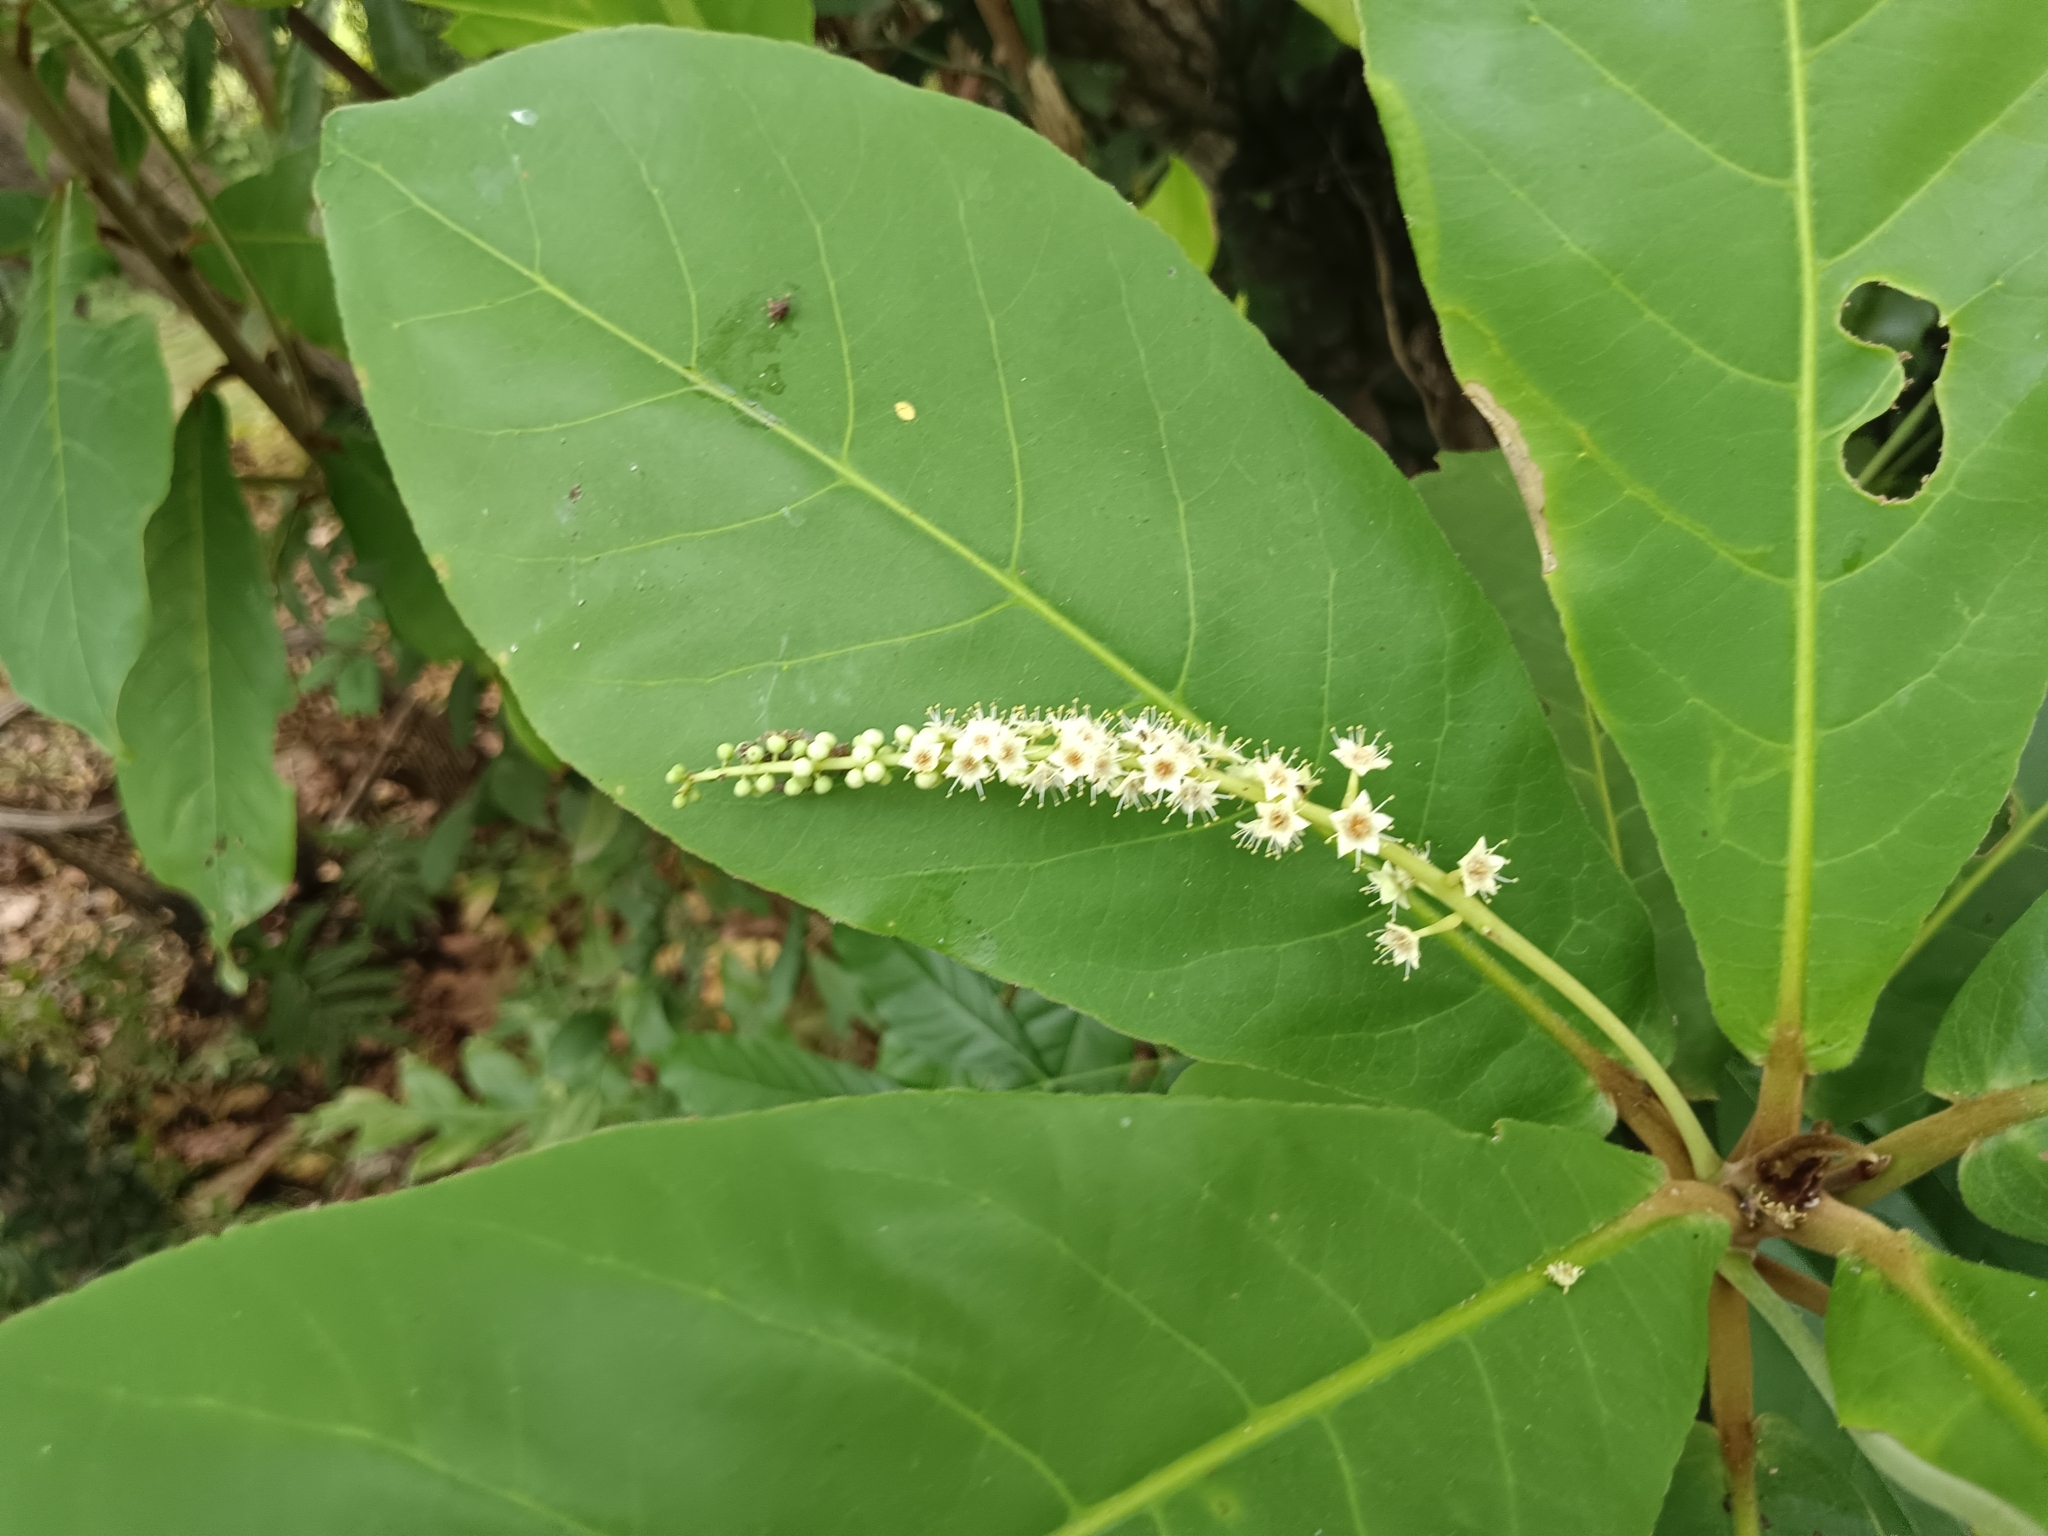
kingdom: Plantae
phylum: Tracheophyta
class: Magnoliopsida
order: Myrtales
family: Combretaceae
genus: Terminalia
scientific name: Terminalia catappa
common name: Tropical almond
